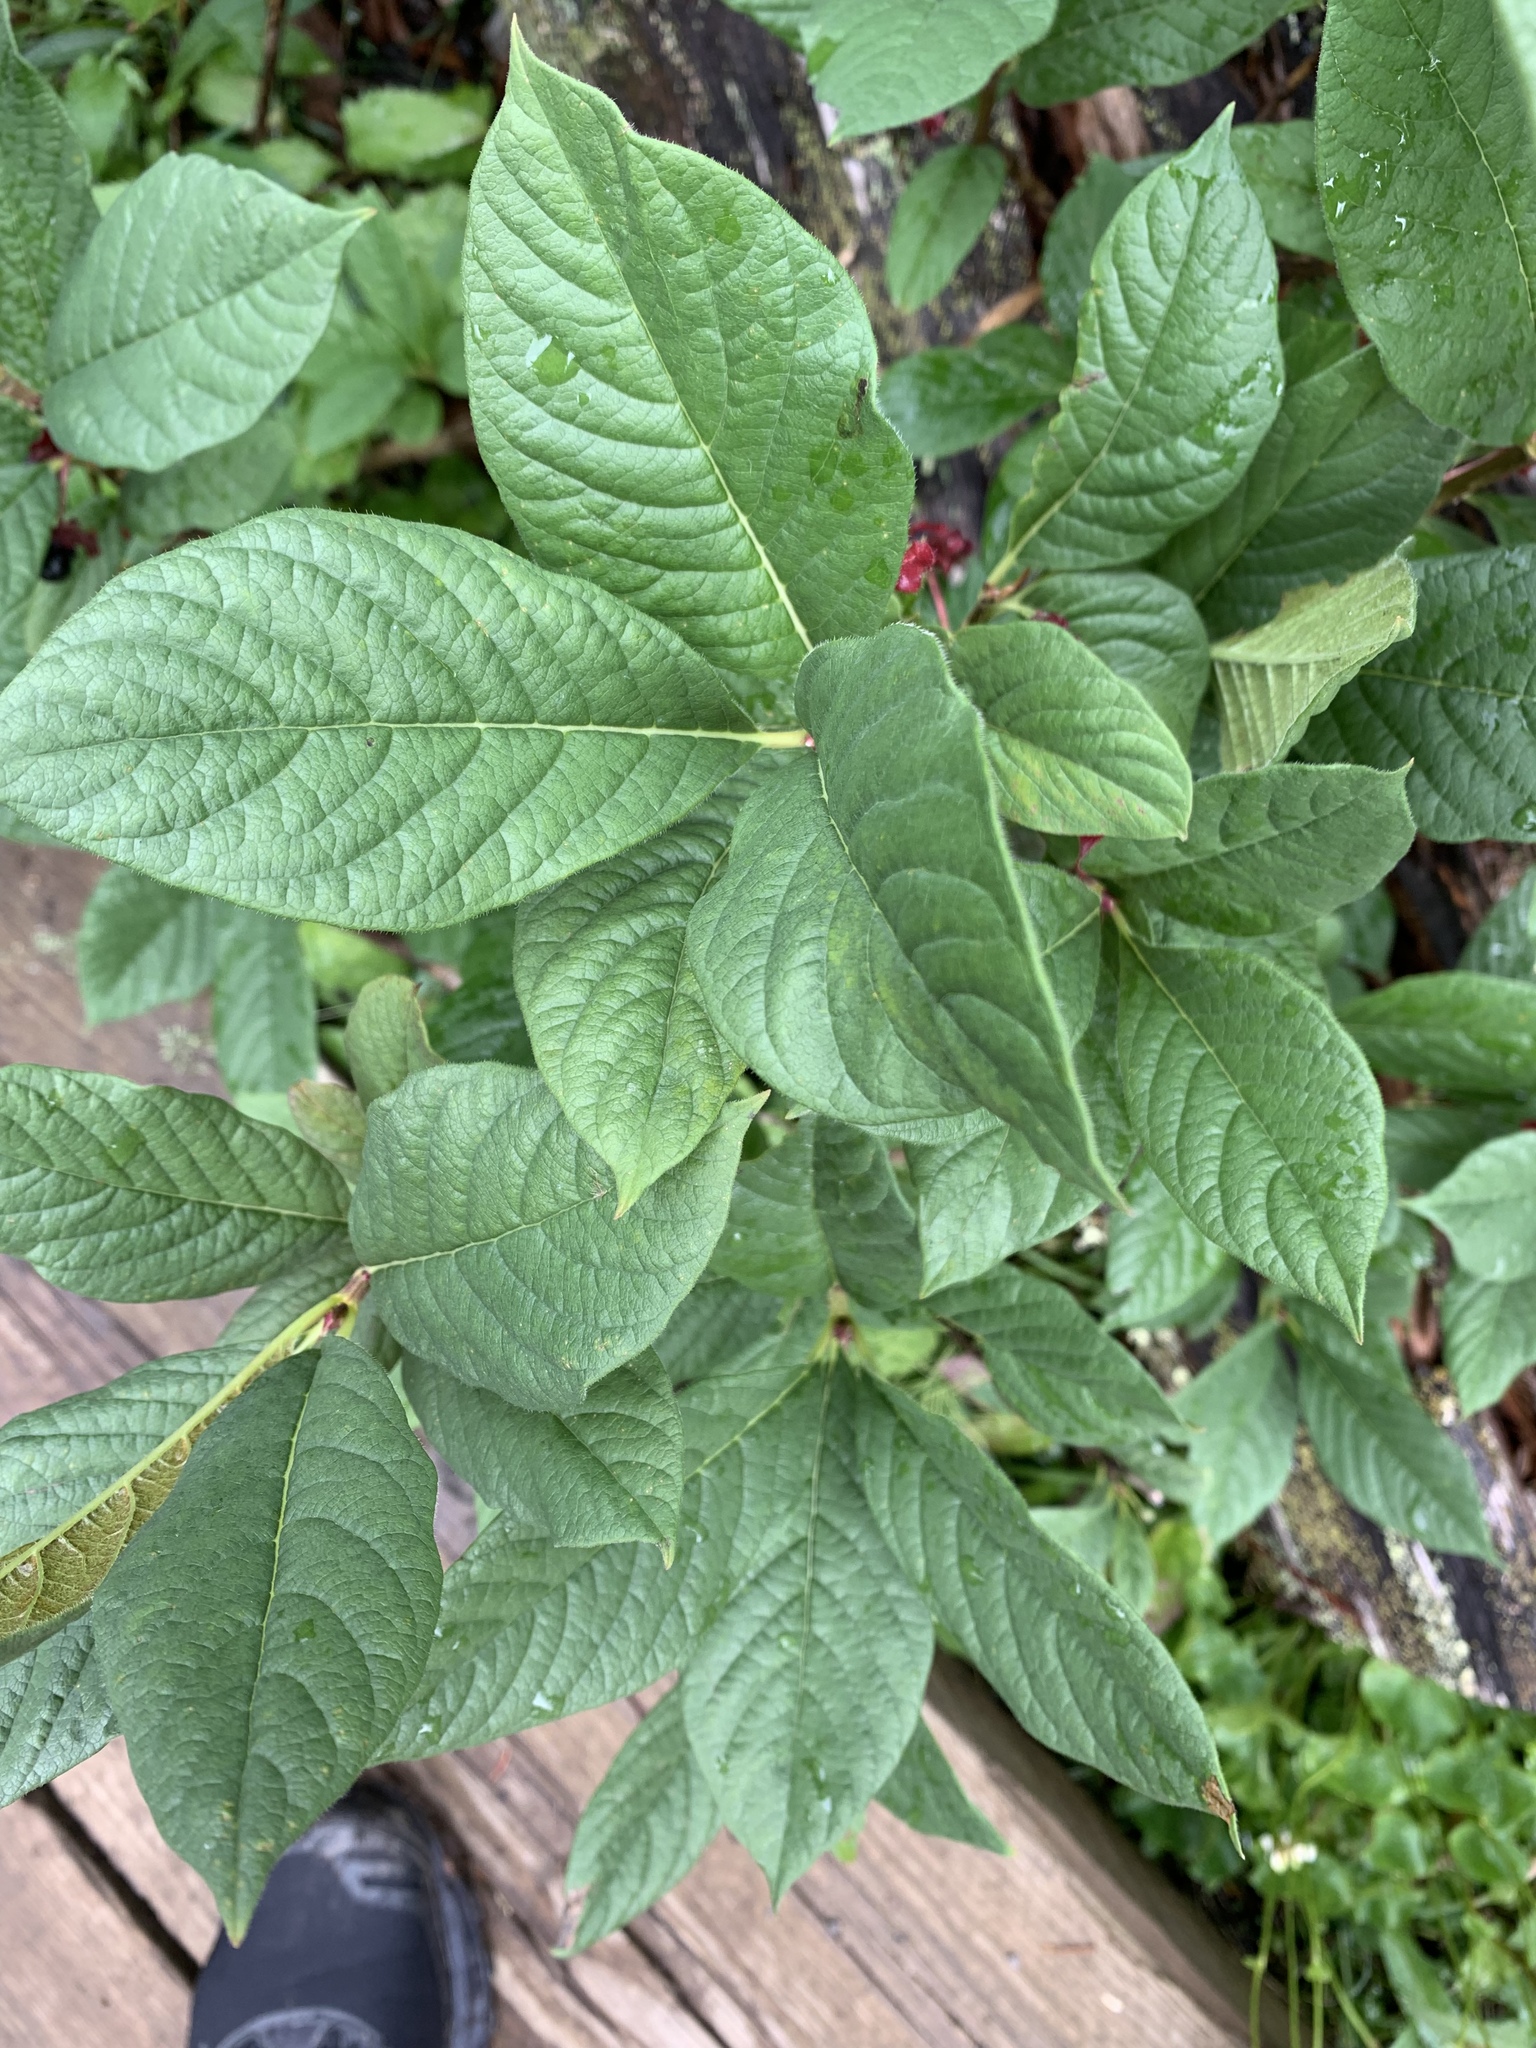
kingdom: Plantae
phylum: Tracheophyta
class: Magnoliopsida
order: Dipsacales
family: Caprifoliaceae
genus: Lonicera
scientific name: Lonicera involucrata
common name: Californian honeysuckle
